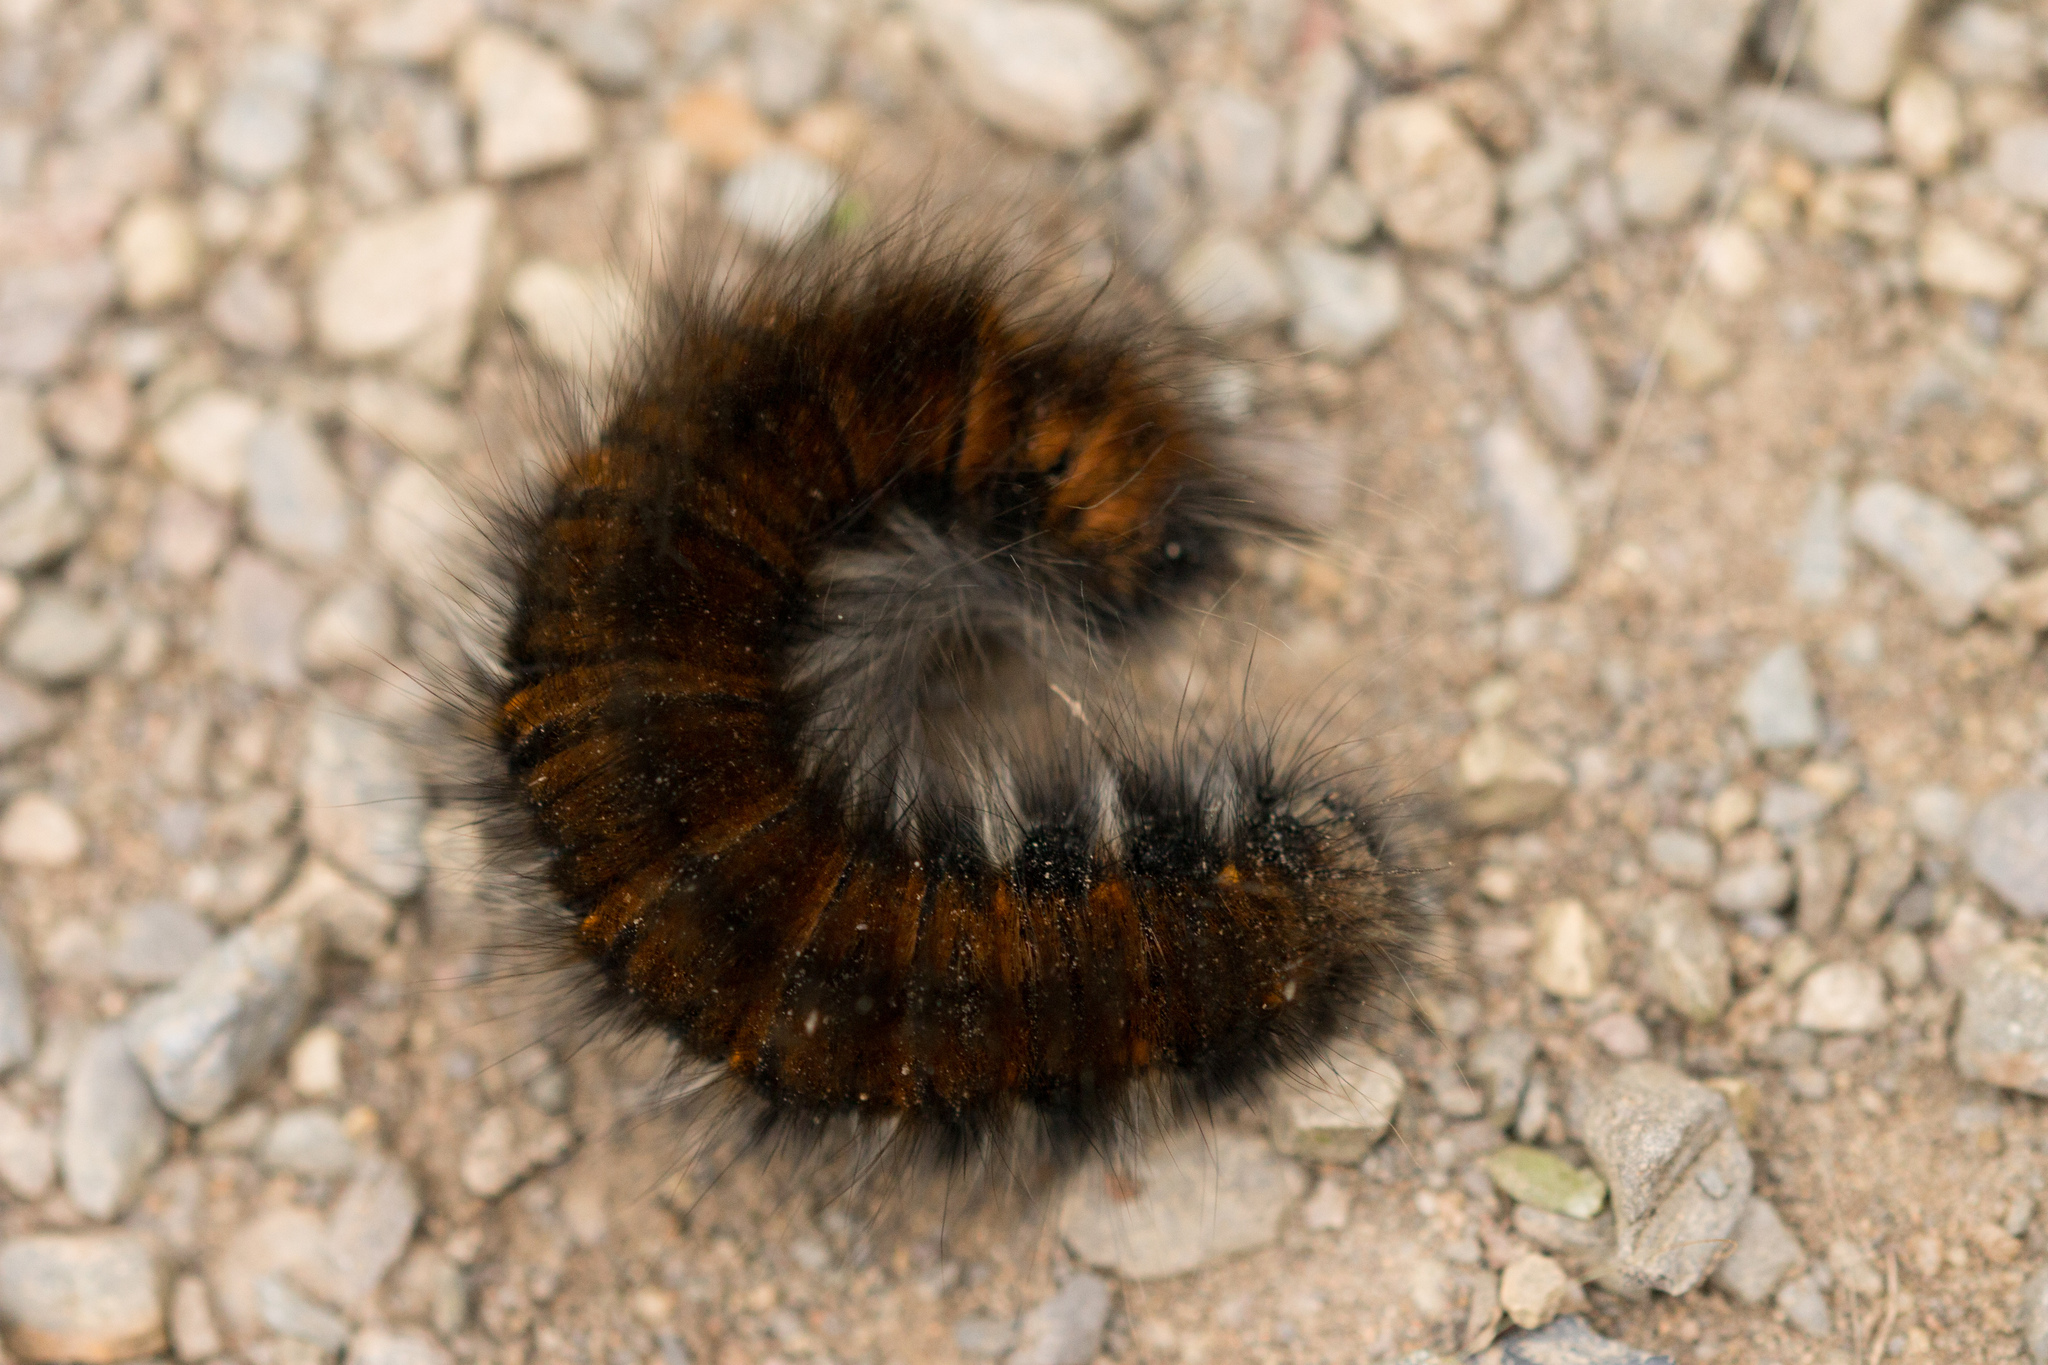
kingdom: Animalia
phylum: Arthropoda
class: Insecta
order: Lepidoptera
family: Lasiocampidae
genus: Macrothylacia
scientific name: Macrothylacia rubi
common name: Fox moth
